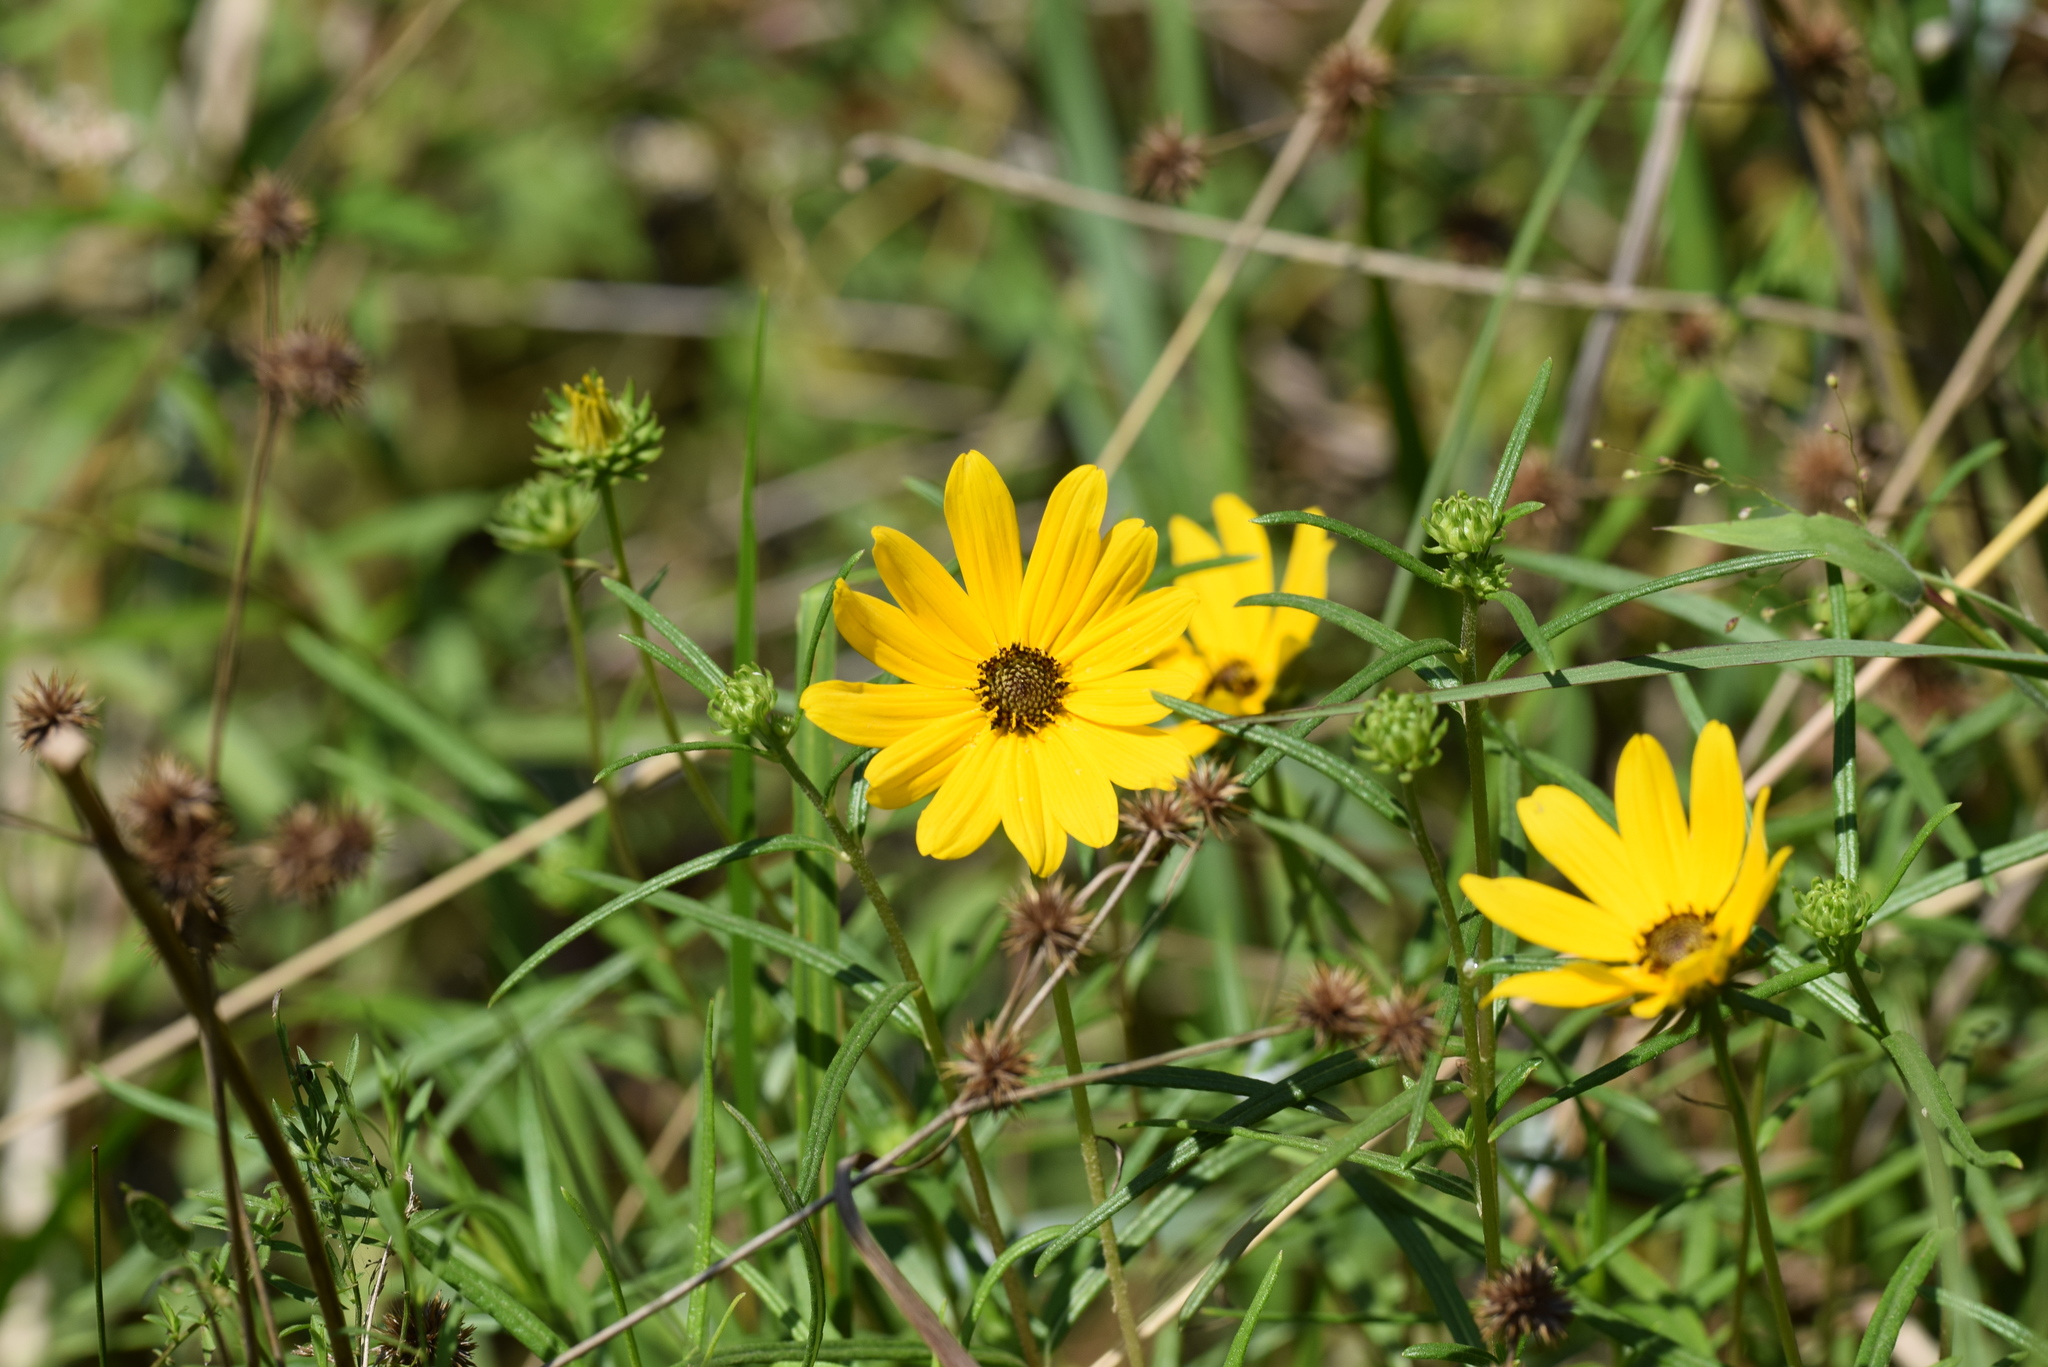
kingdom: Plantae
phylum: Tracheophyta
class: Magnoliopsida
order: Asterales
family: Asteraceae
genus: Helianthus
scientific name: Helianthus angustifolius
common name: Swamp sunflower
